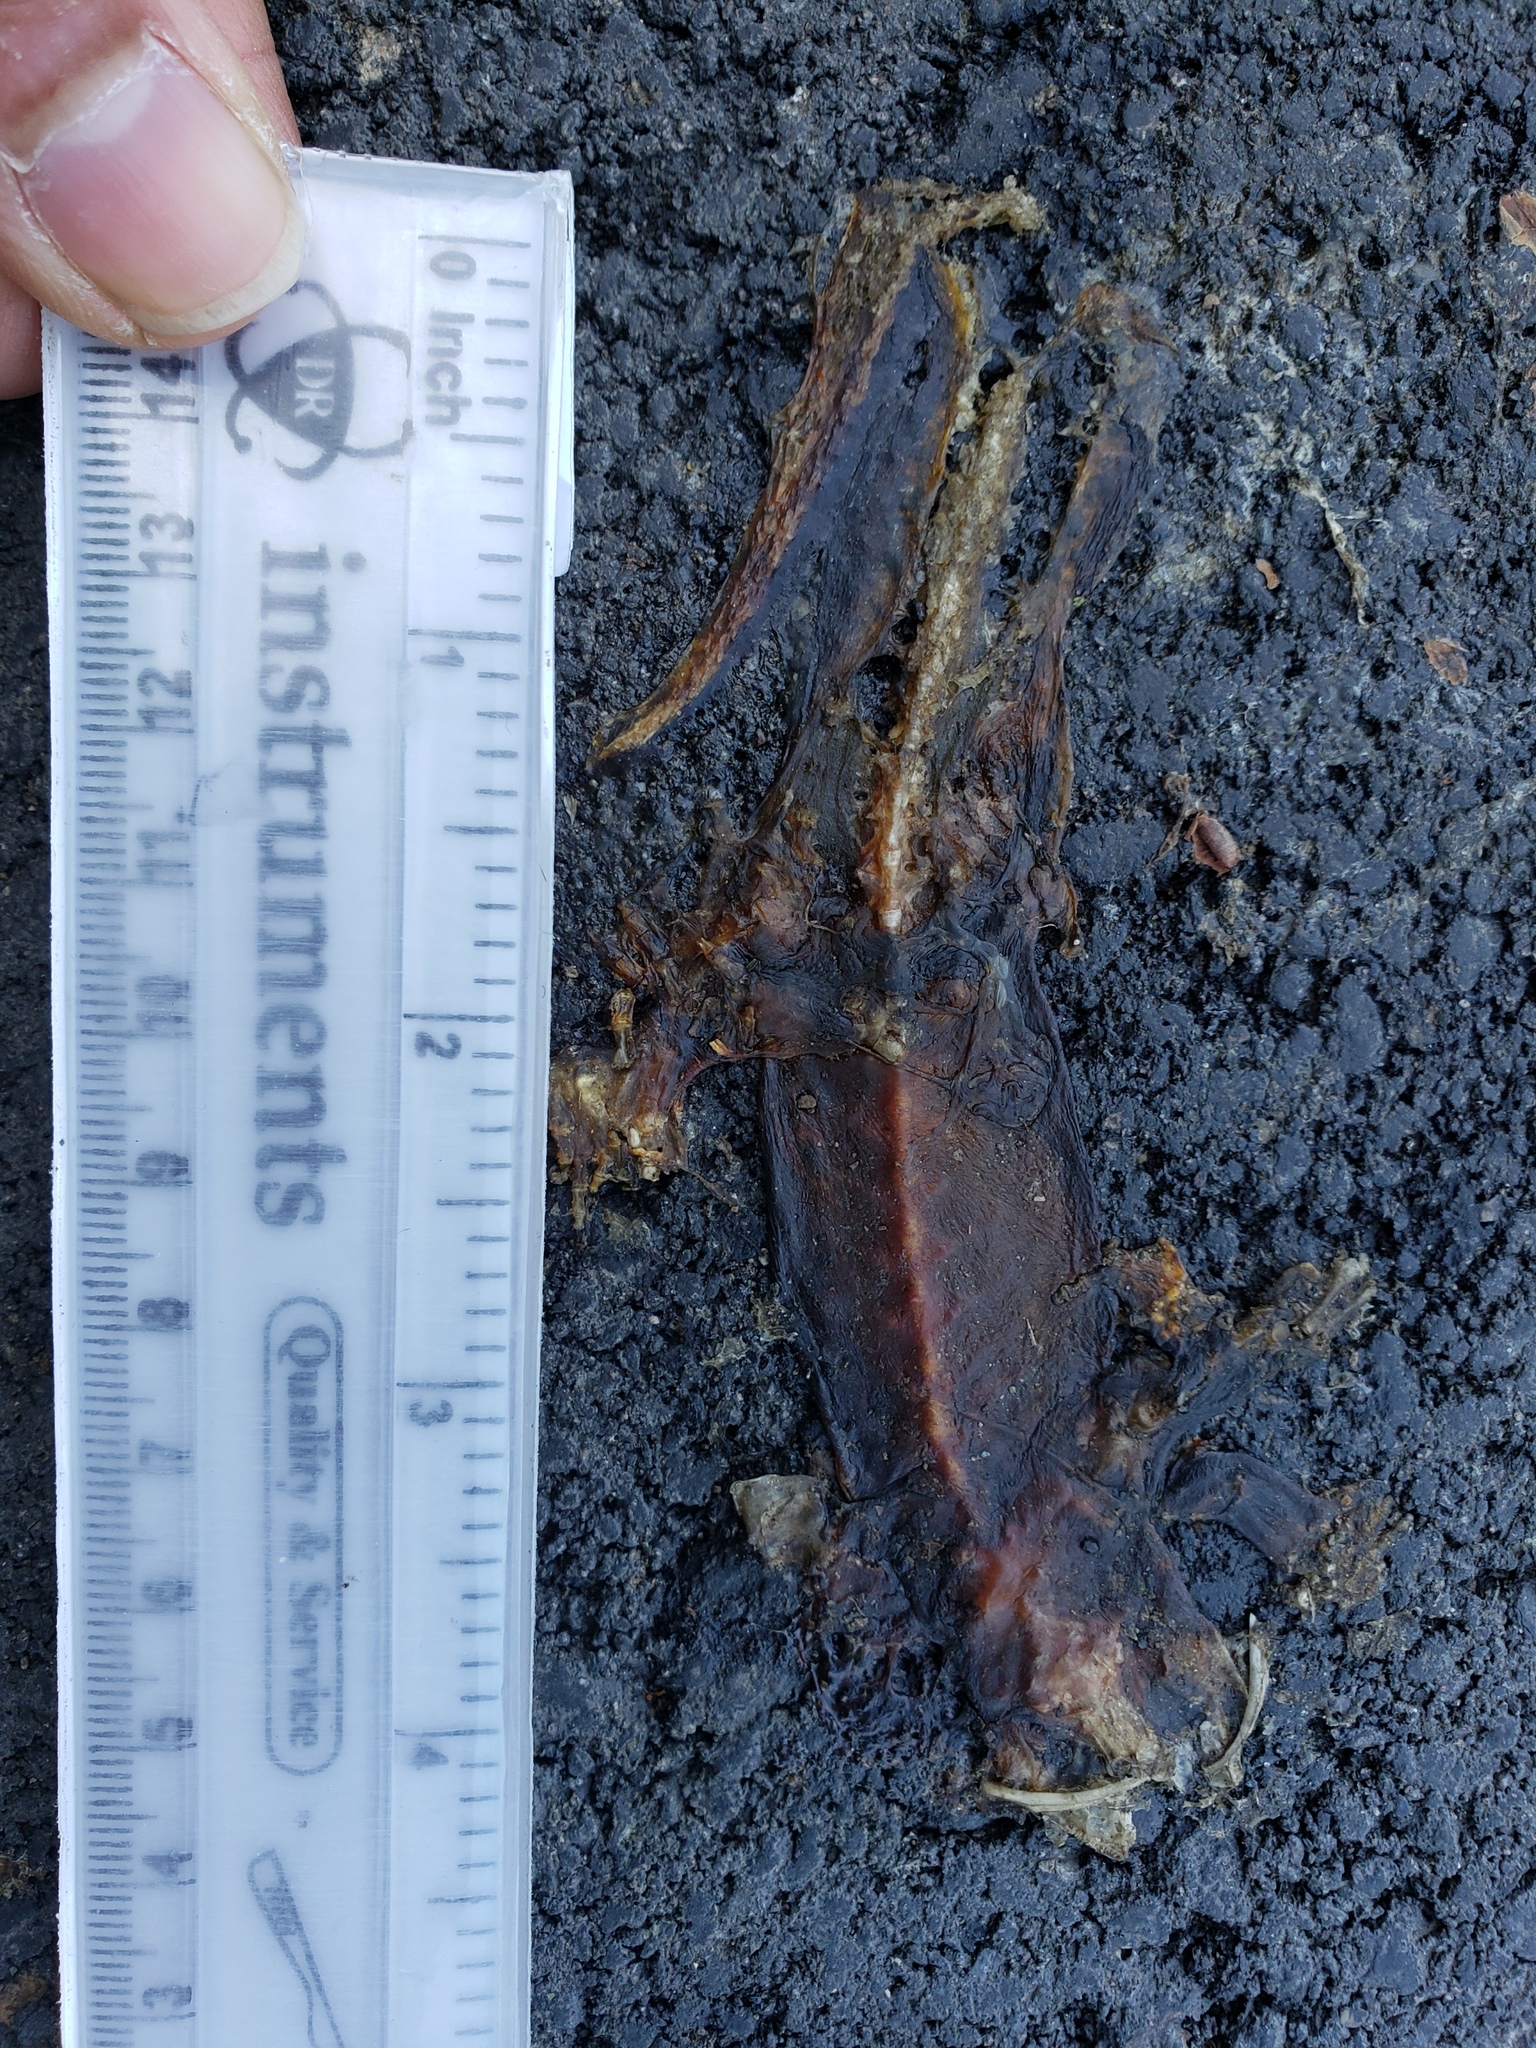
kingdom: Animalia
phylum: Chordata
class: Amphibia
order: Caudata
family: Salamandridae
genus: Taricha
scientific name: Taricha
